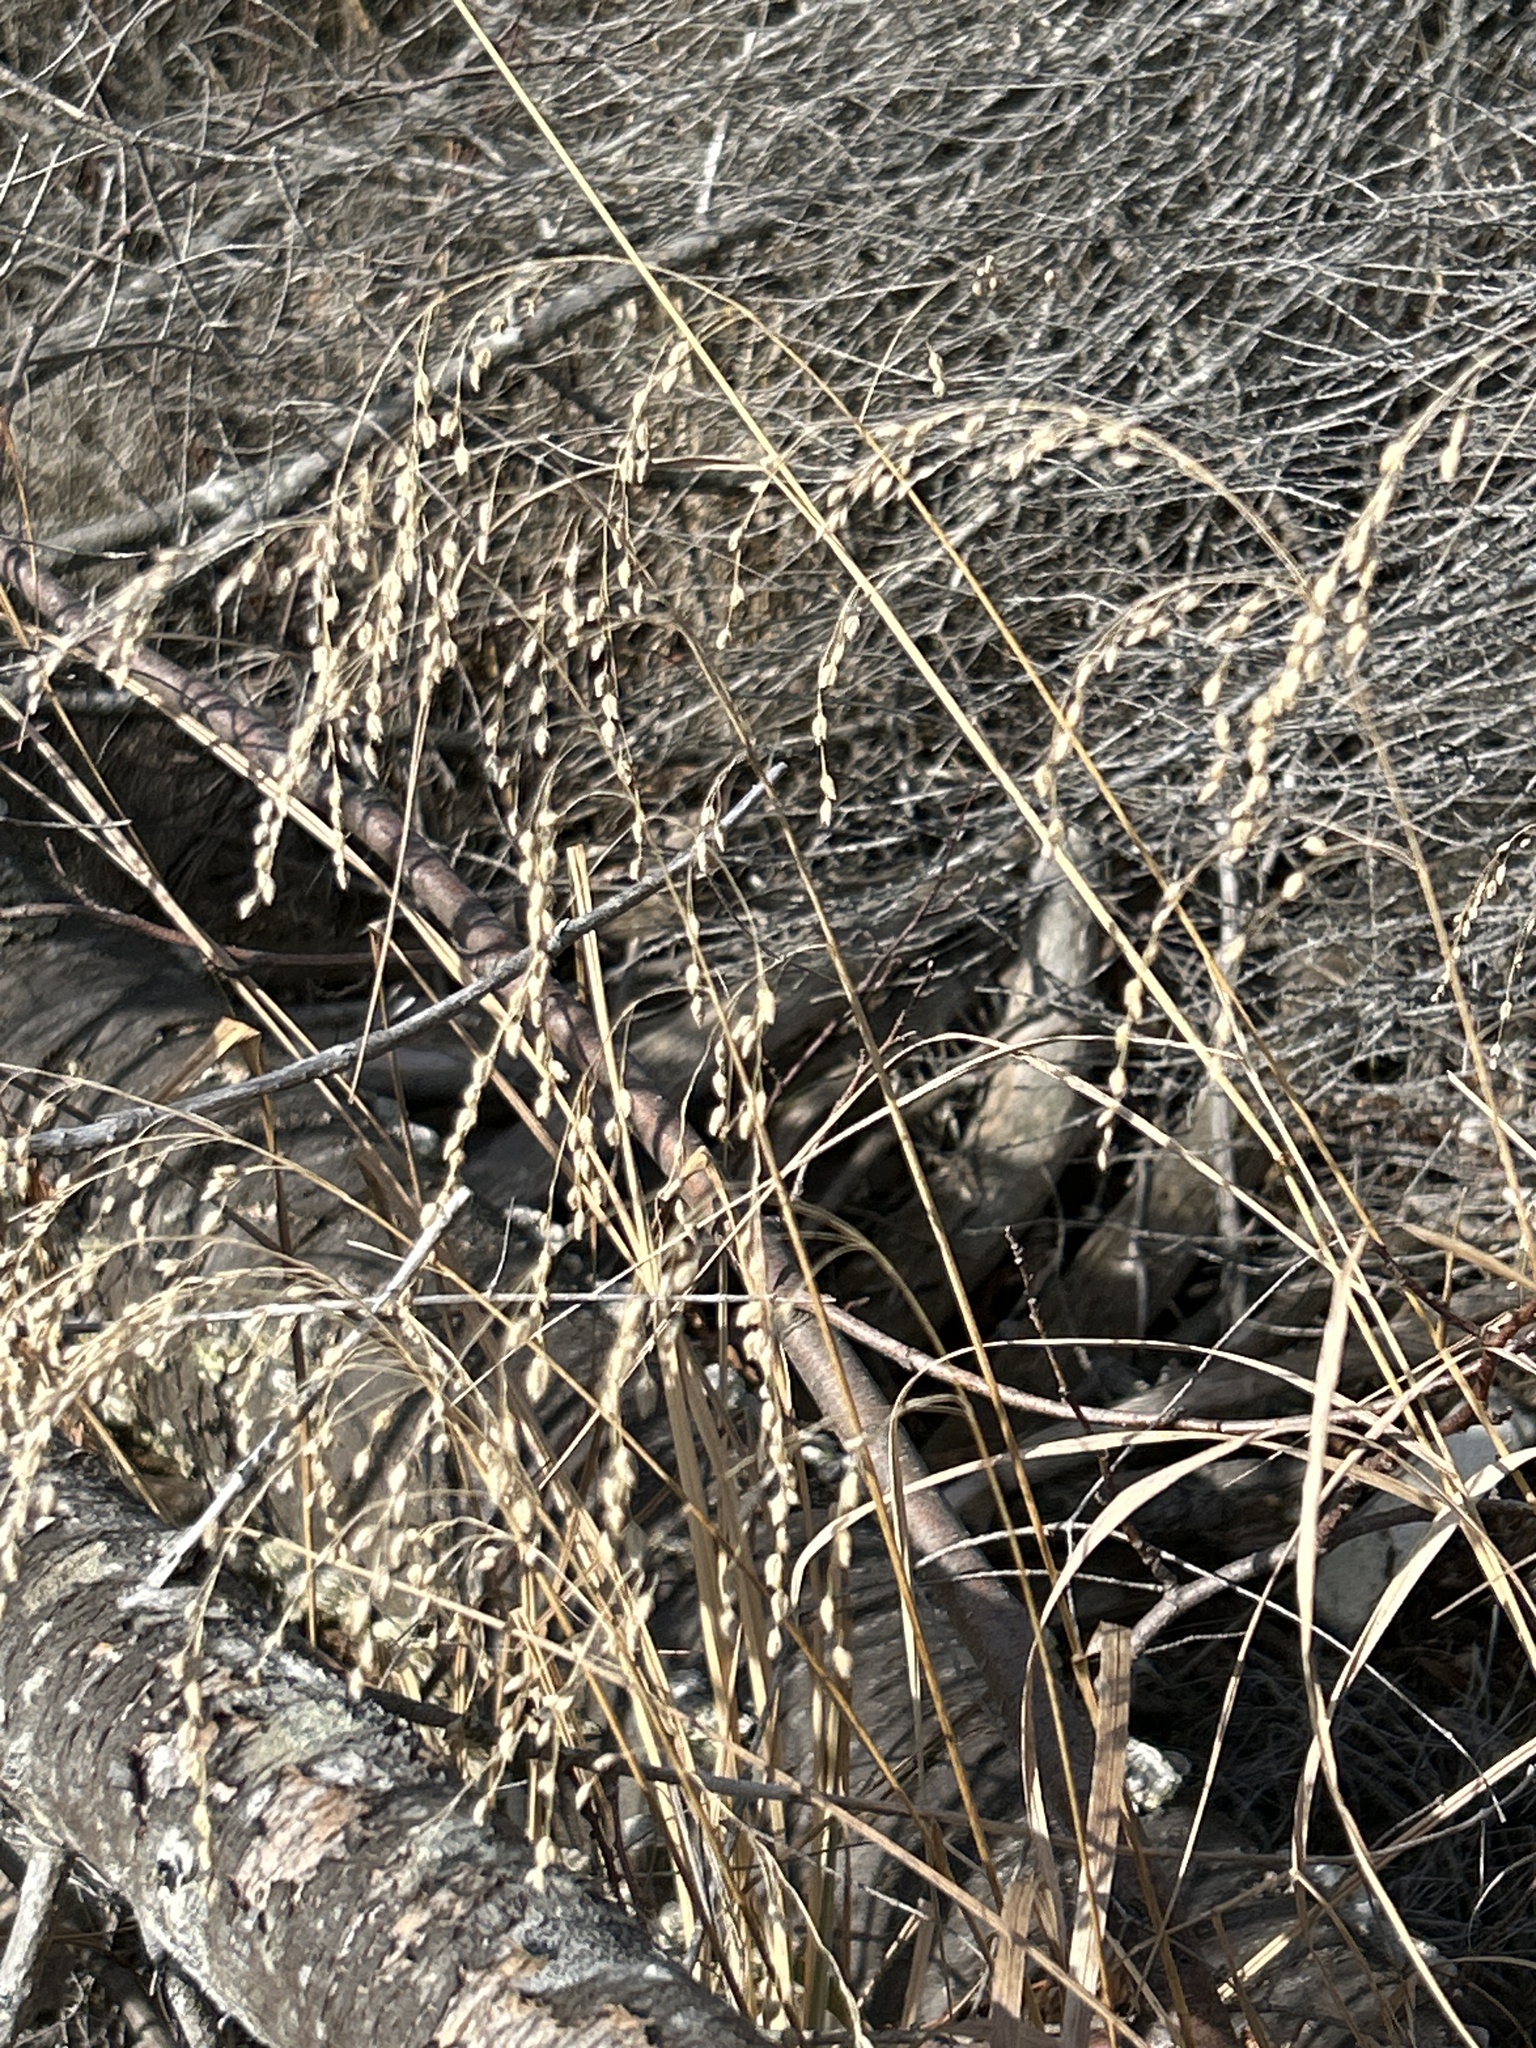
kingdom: Plantae
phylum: Tracheophyta
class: Liliopsida
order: Poales
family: Poaceae
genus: Glyceria
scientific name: Glyceria canadensis
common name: Canada mannagrass
